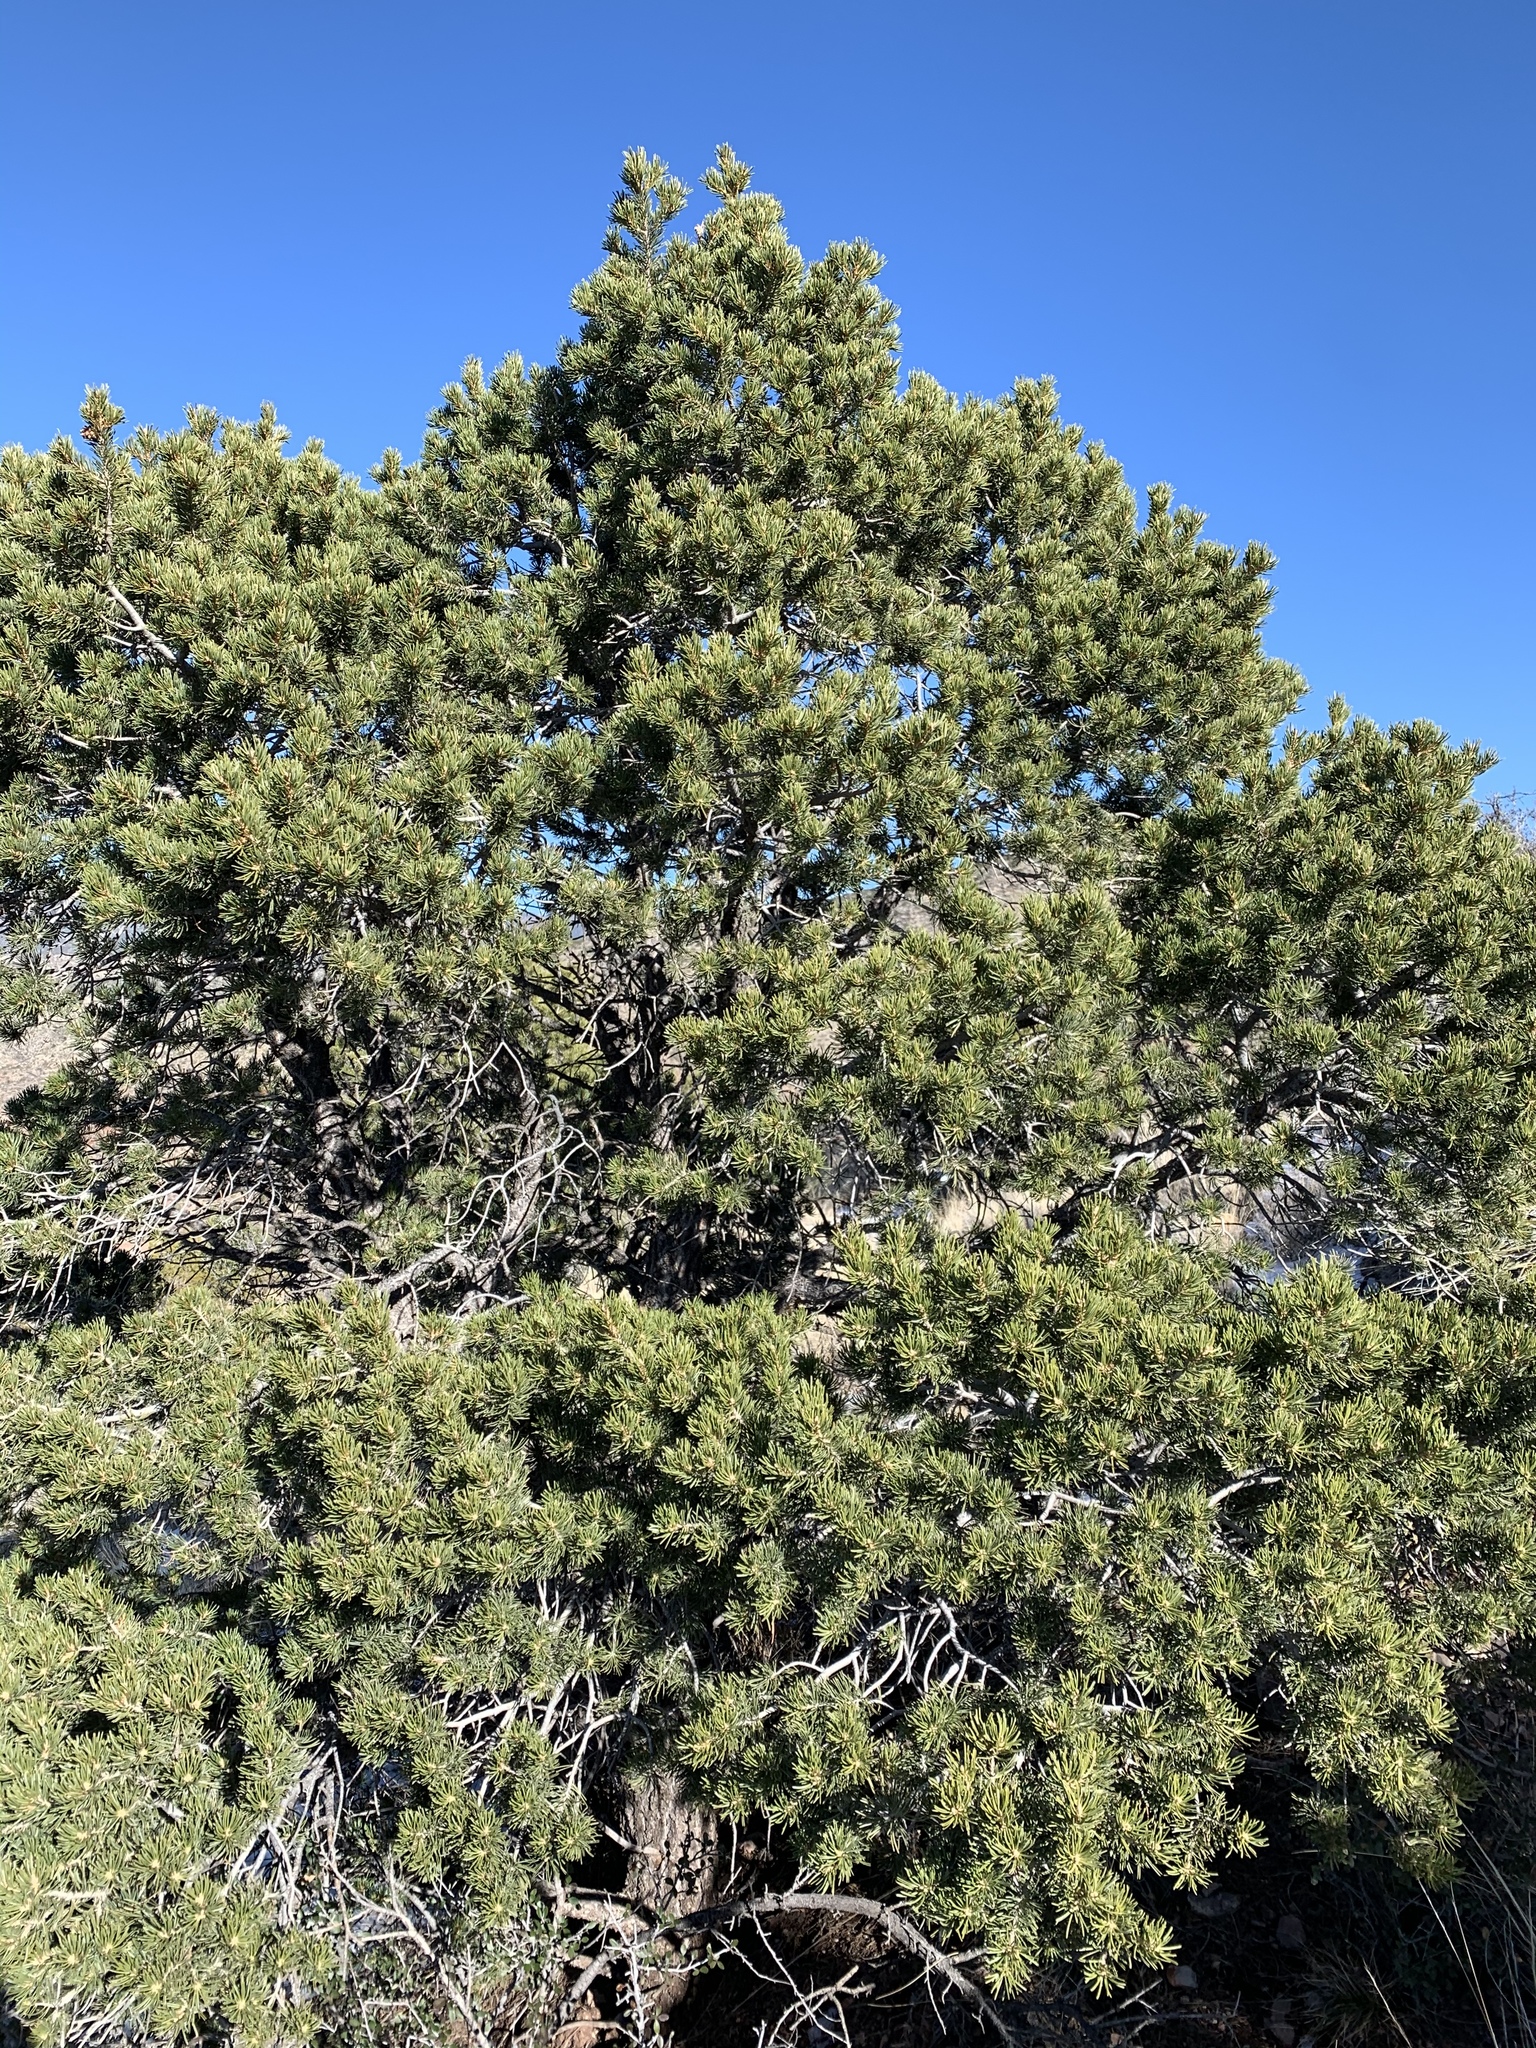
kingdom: Plantae
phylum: Tracheophyta
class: Pinopsida
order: Pinales
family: Pinaceae
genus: Pinus
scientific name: Pinus edulis
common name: Colorado pinyon
